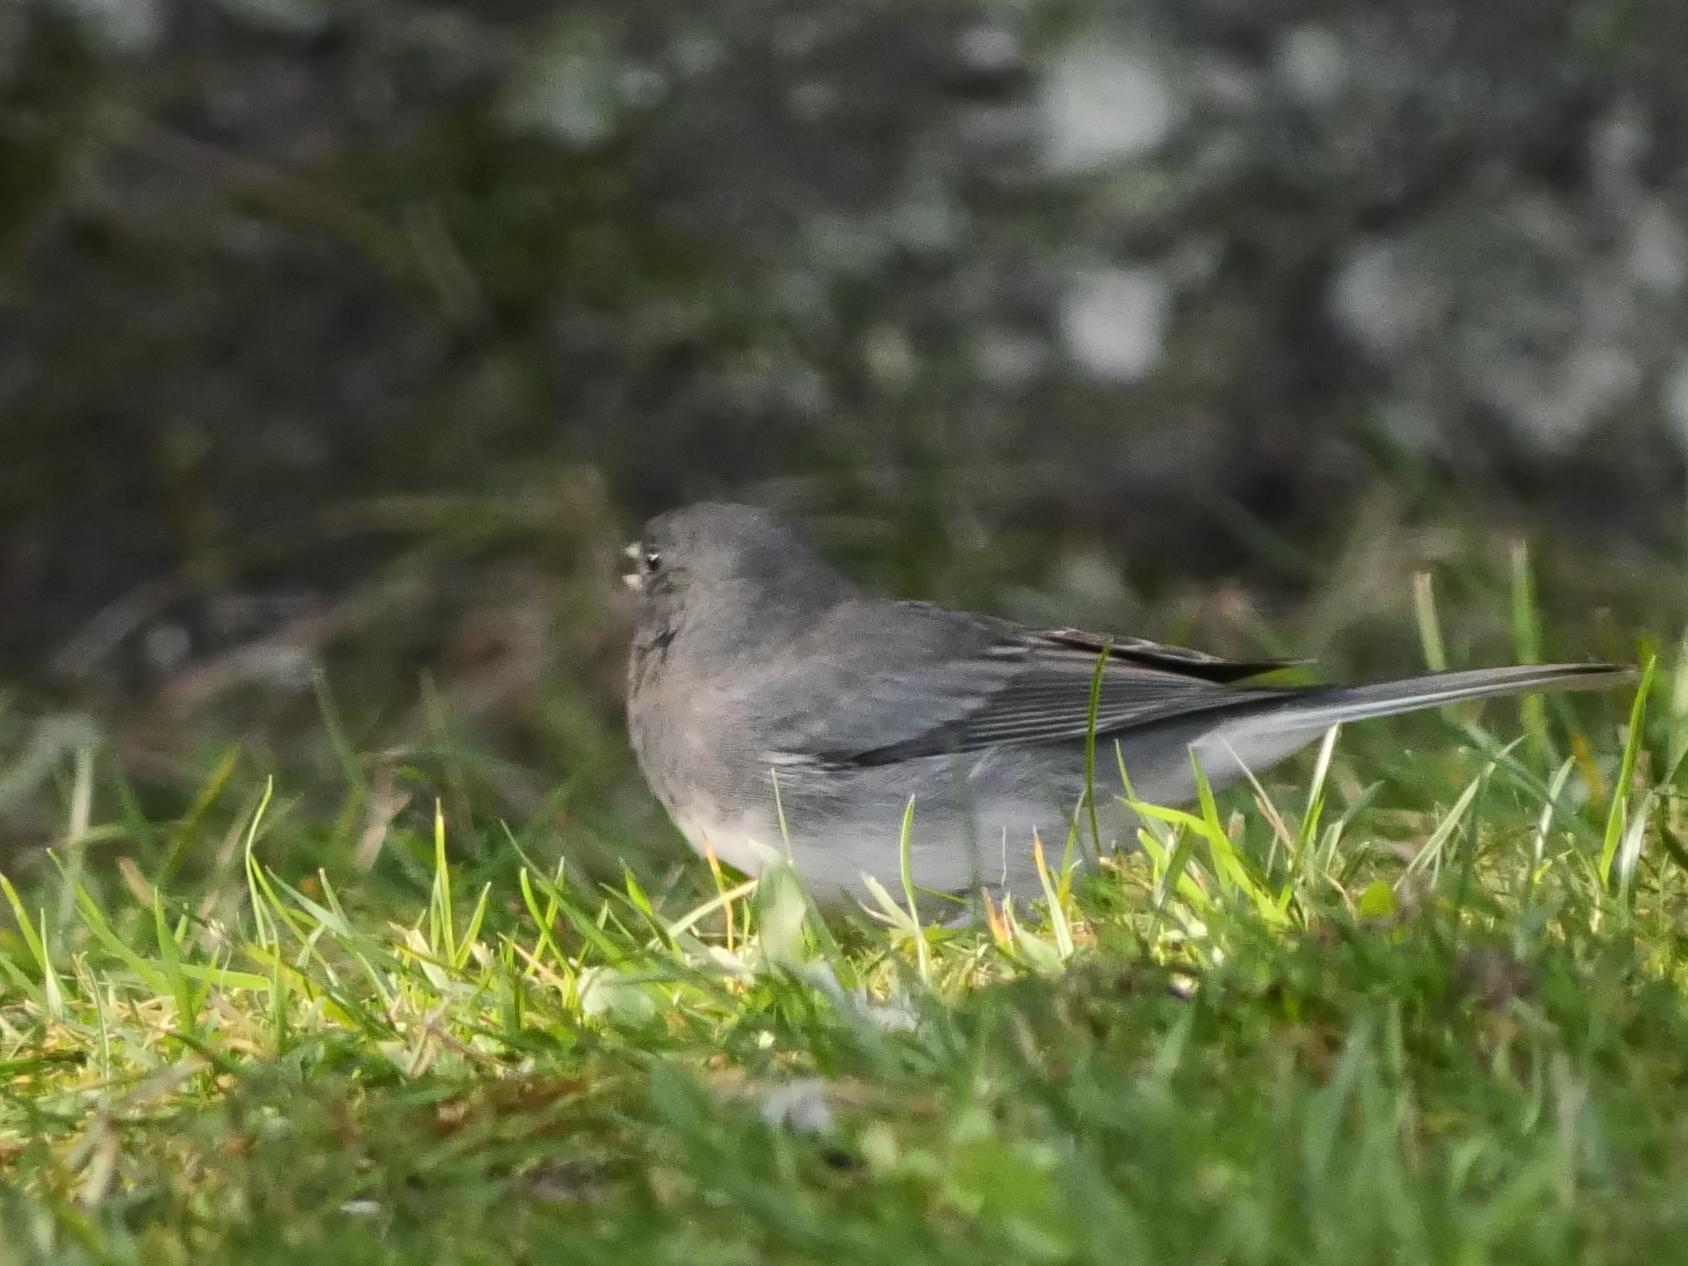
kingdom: Animalia
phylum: Chordata
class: Aves
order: Passeriformes
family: Passerellidae
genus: Junco
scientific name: Junco hyemalis
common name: Dark-eyed junco
